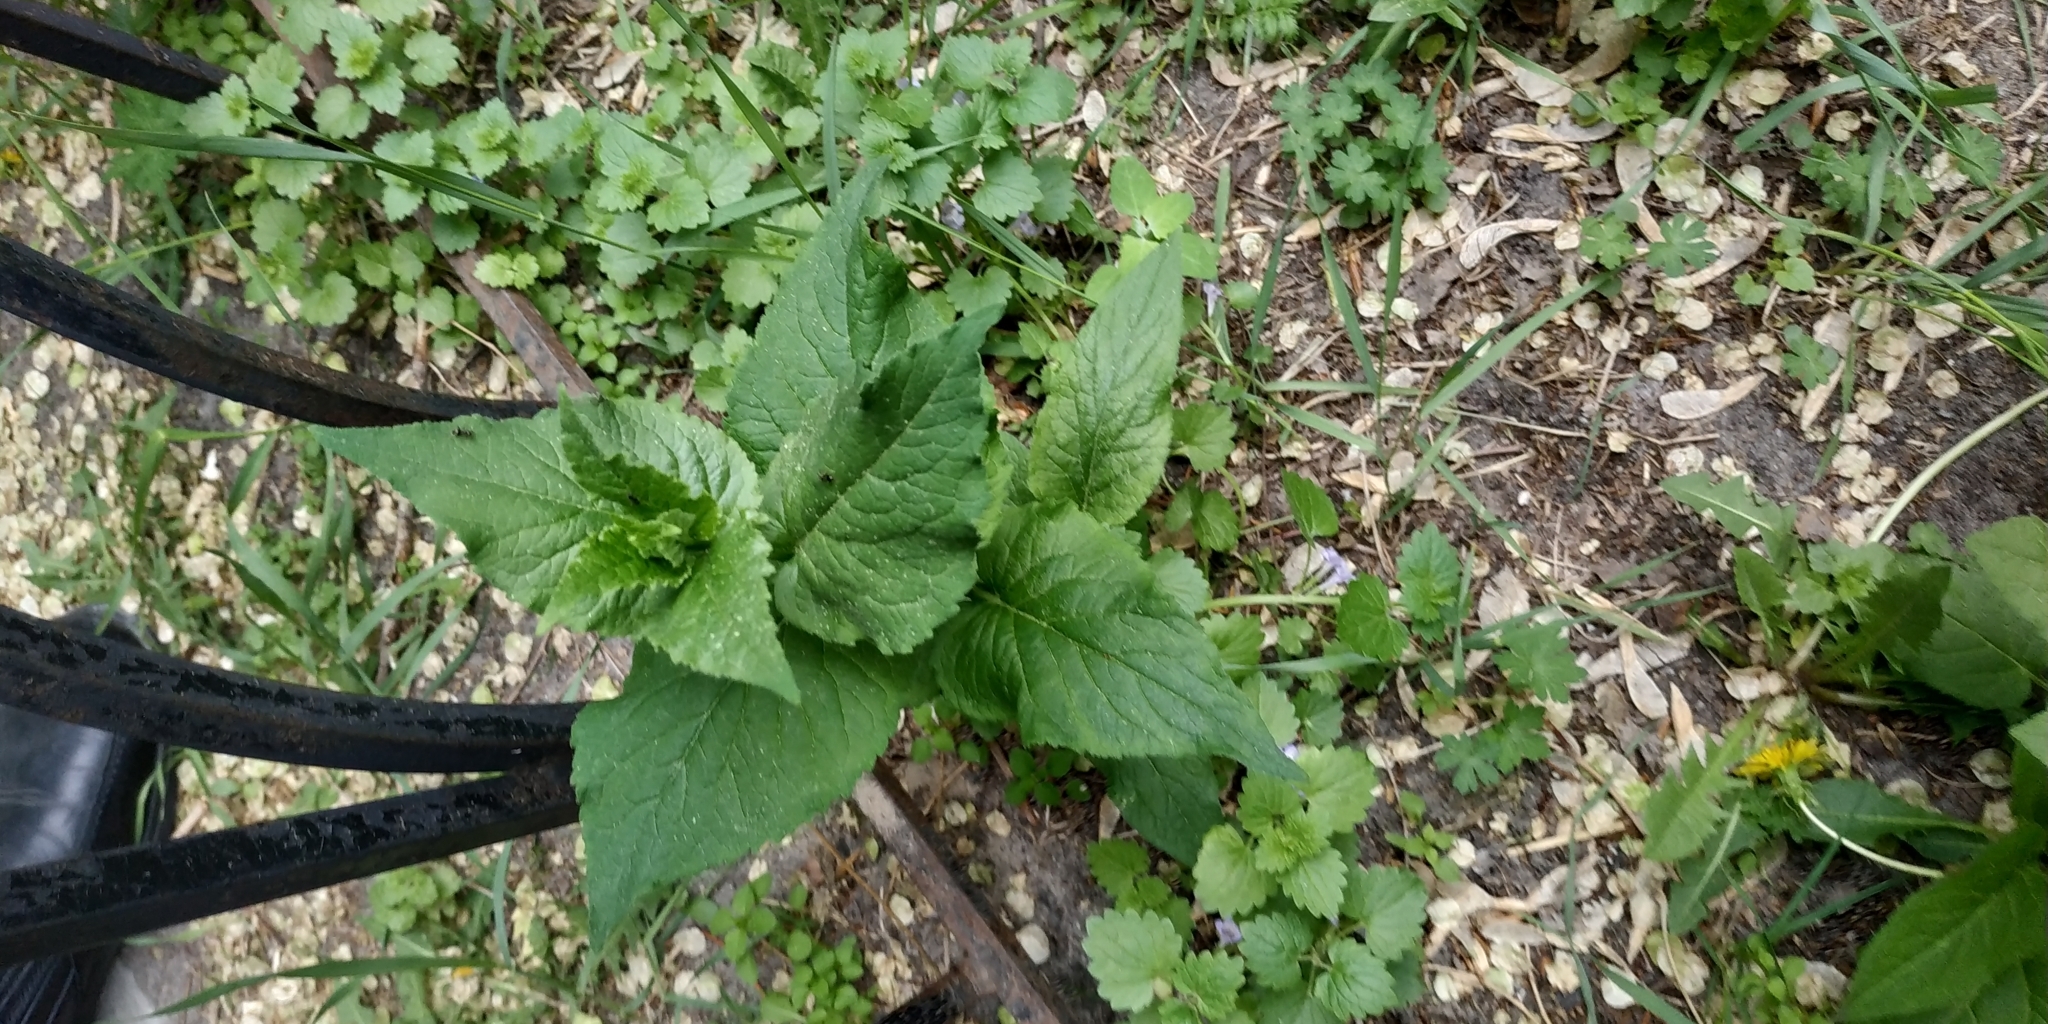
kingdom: Plantae
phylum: Tracheophyta
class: Magnoliopsida
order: Asterales
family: Campanulaceae
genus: Campanula
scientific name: Campanula latifolia
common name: Giant bellflower
